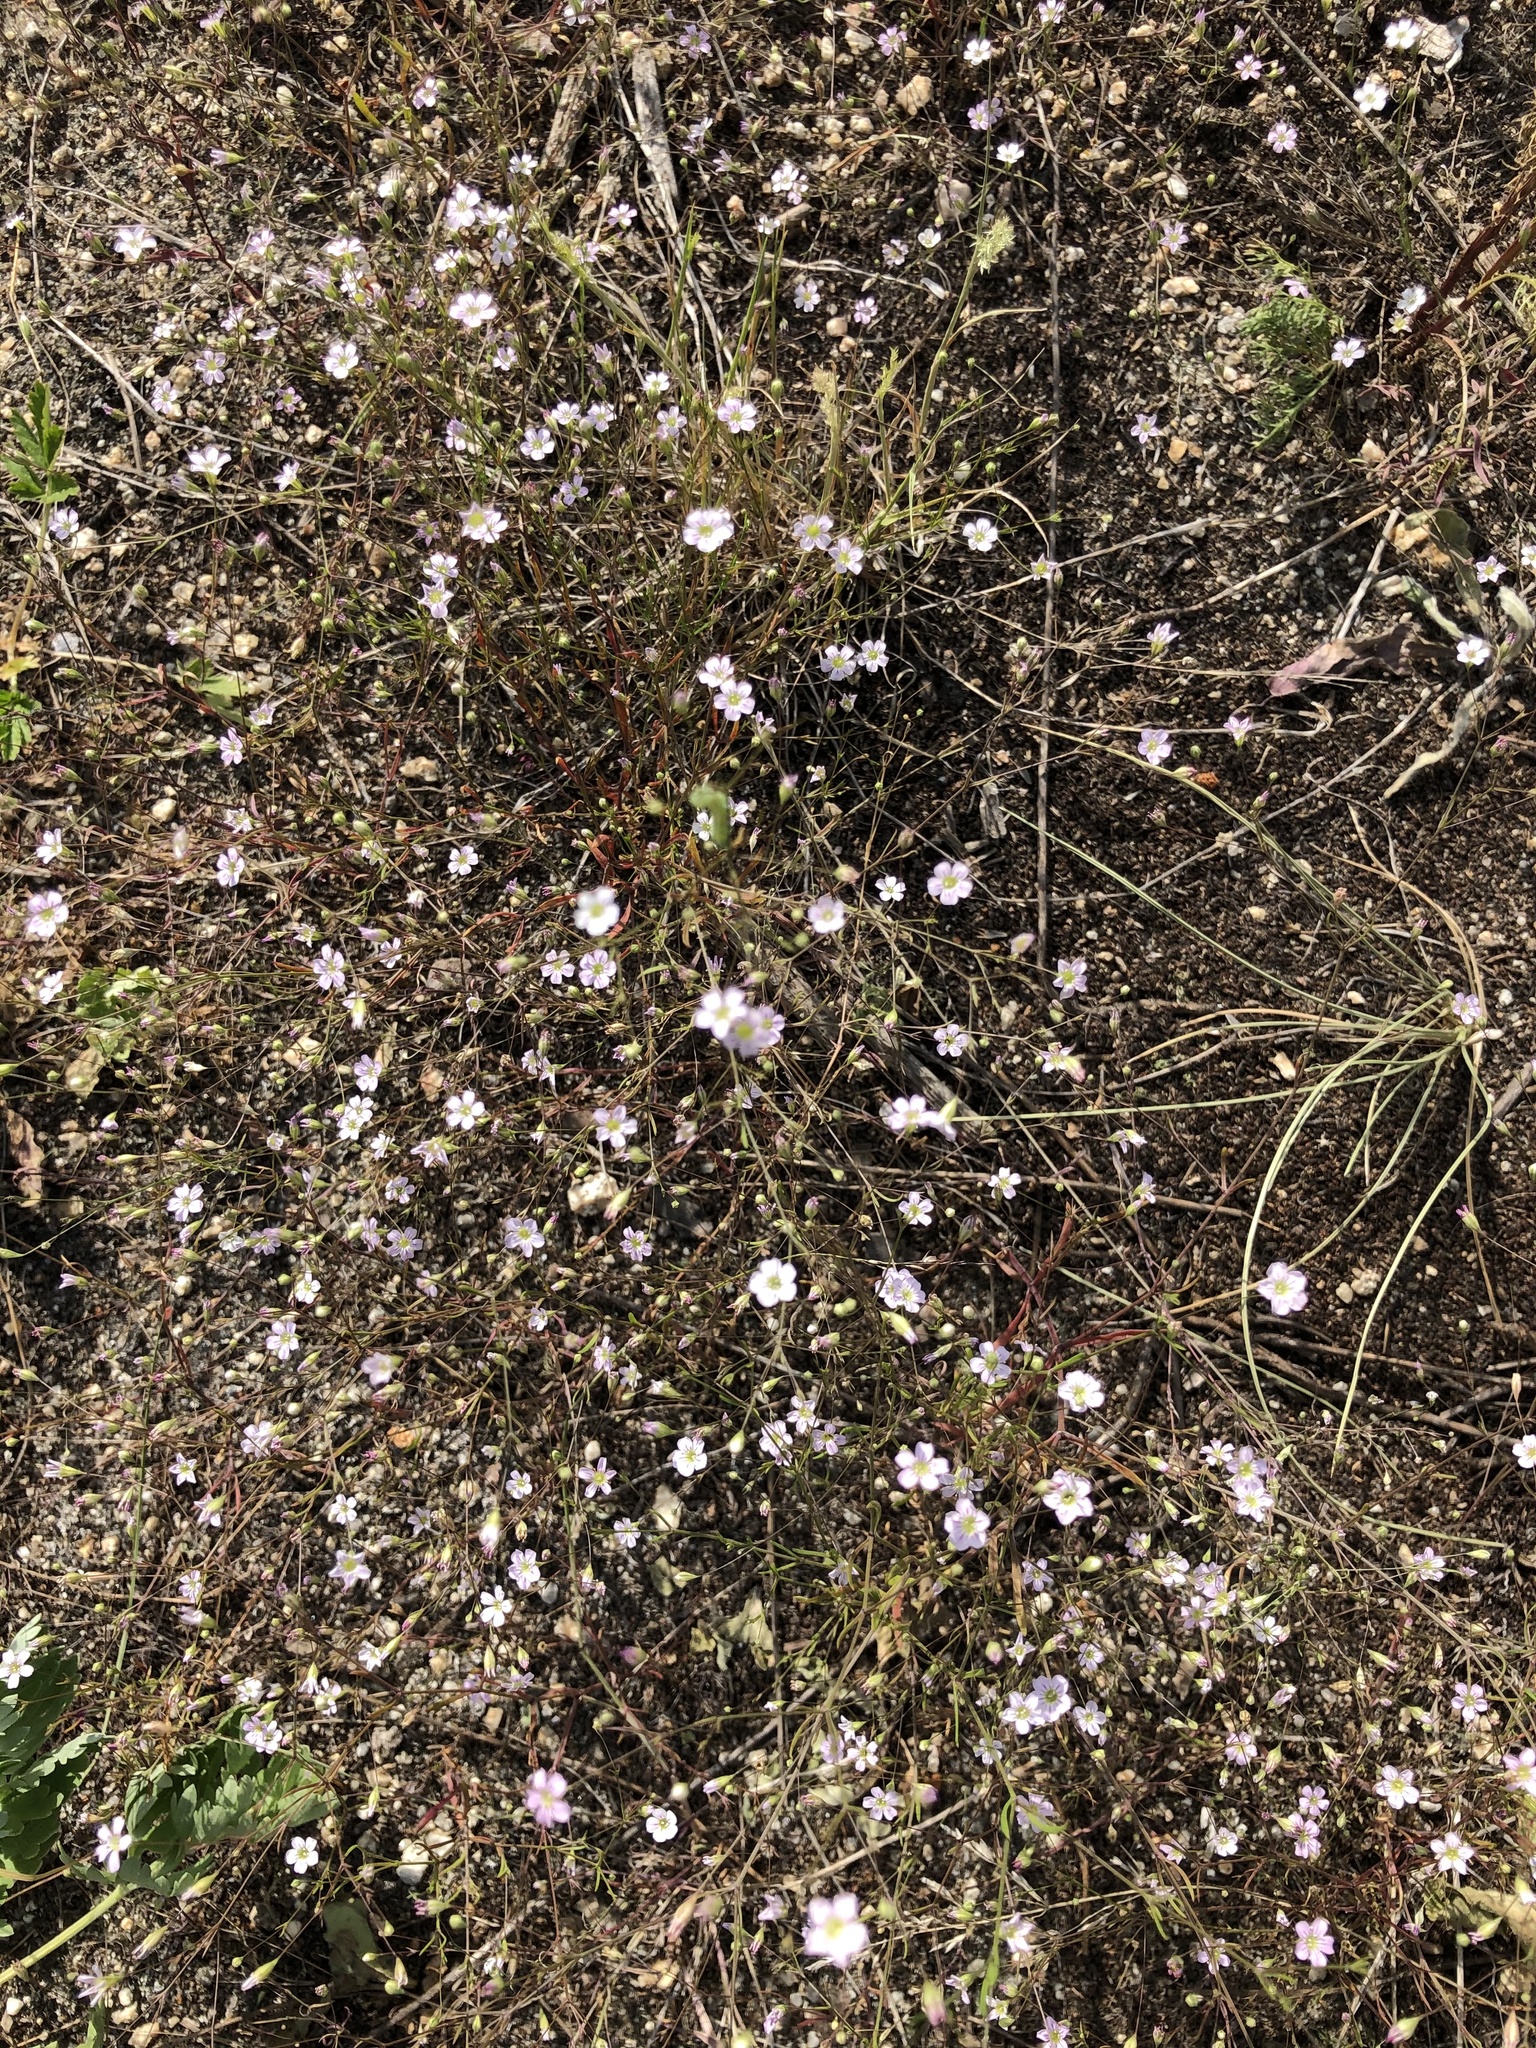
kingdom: Plantae
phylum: Tracheophyta
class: Magnoliopsida
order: Caryophyllales
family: Caryophyllaceae
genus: Psammophiliella
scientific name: Psammophiliella muralis
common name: Cushion baby's-breath
